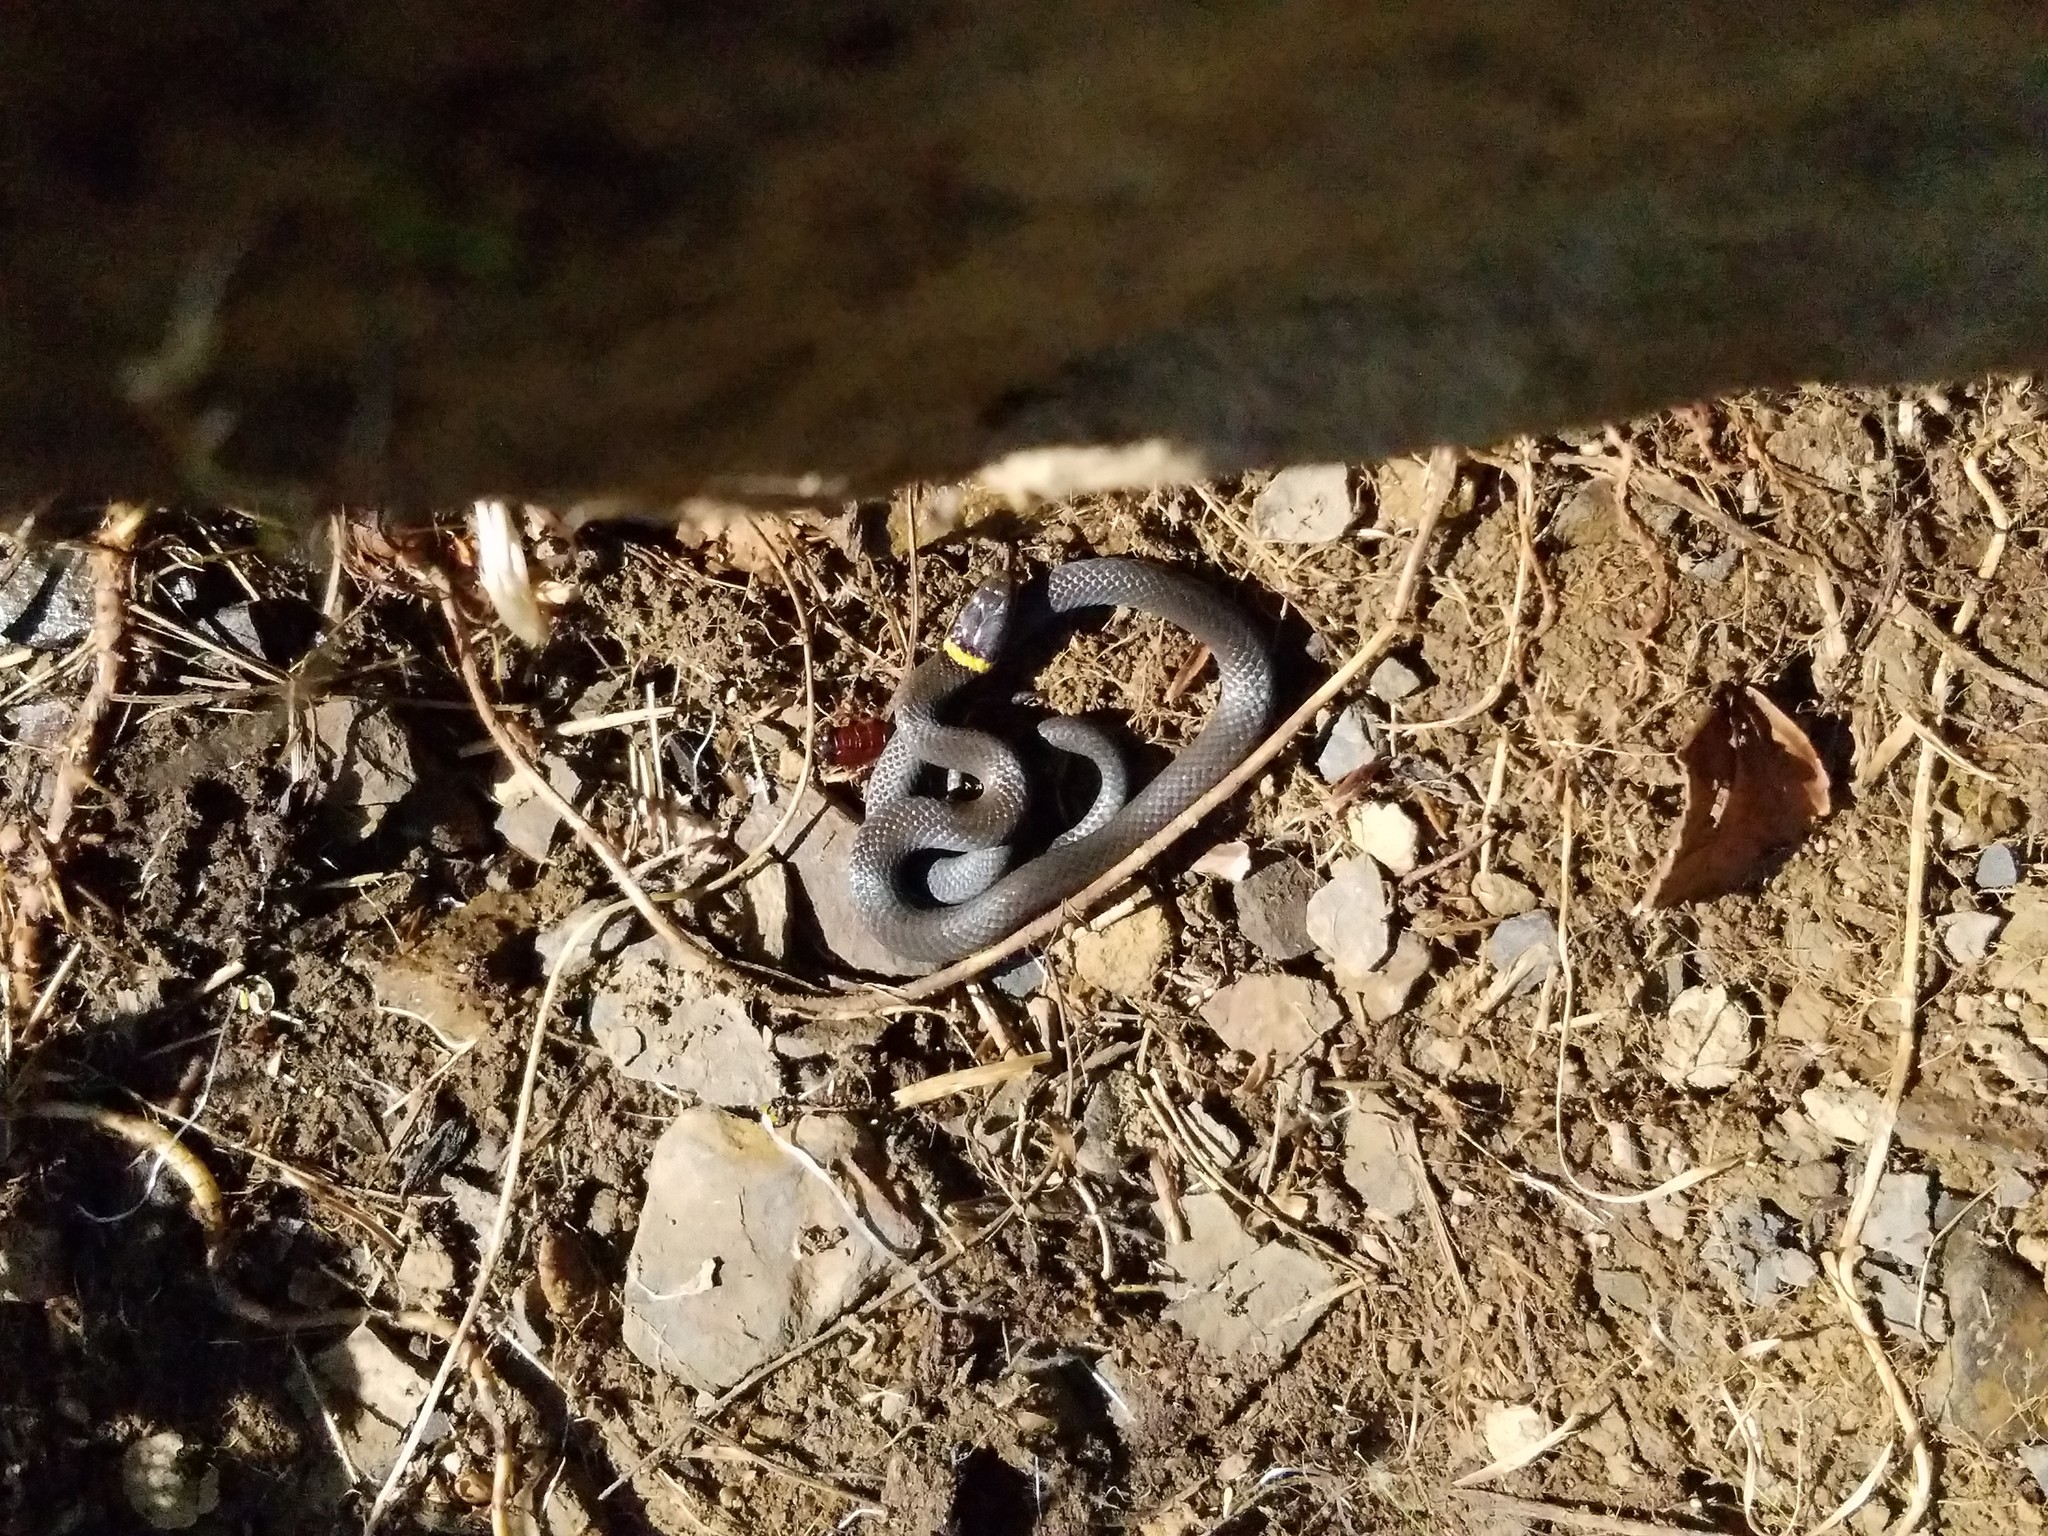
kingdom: Animalia
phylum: Chordata
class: Squamata
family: Colubridae
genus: Diadophis
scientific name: Diadophis punctatus
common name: Ringneck snake
